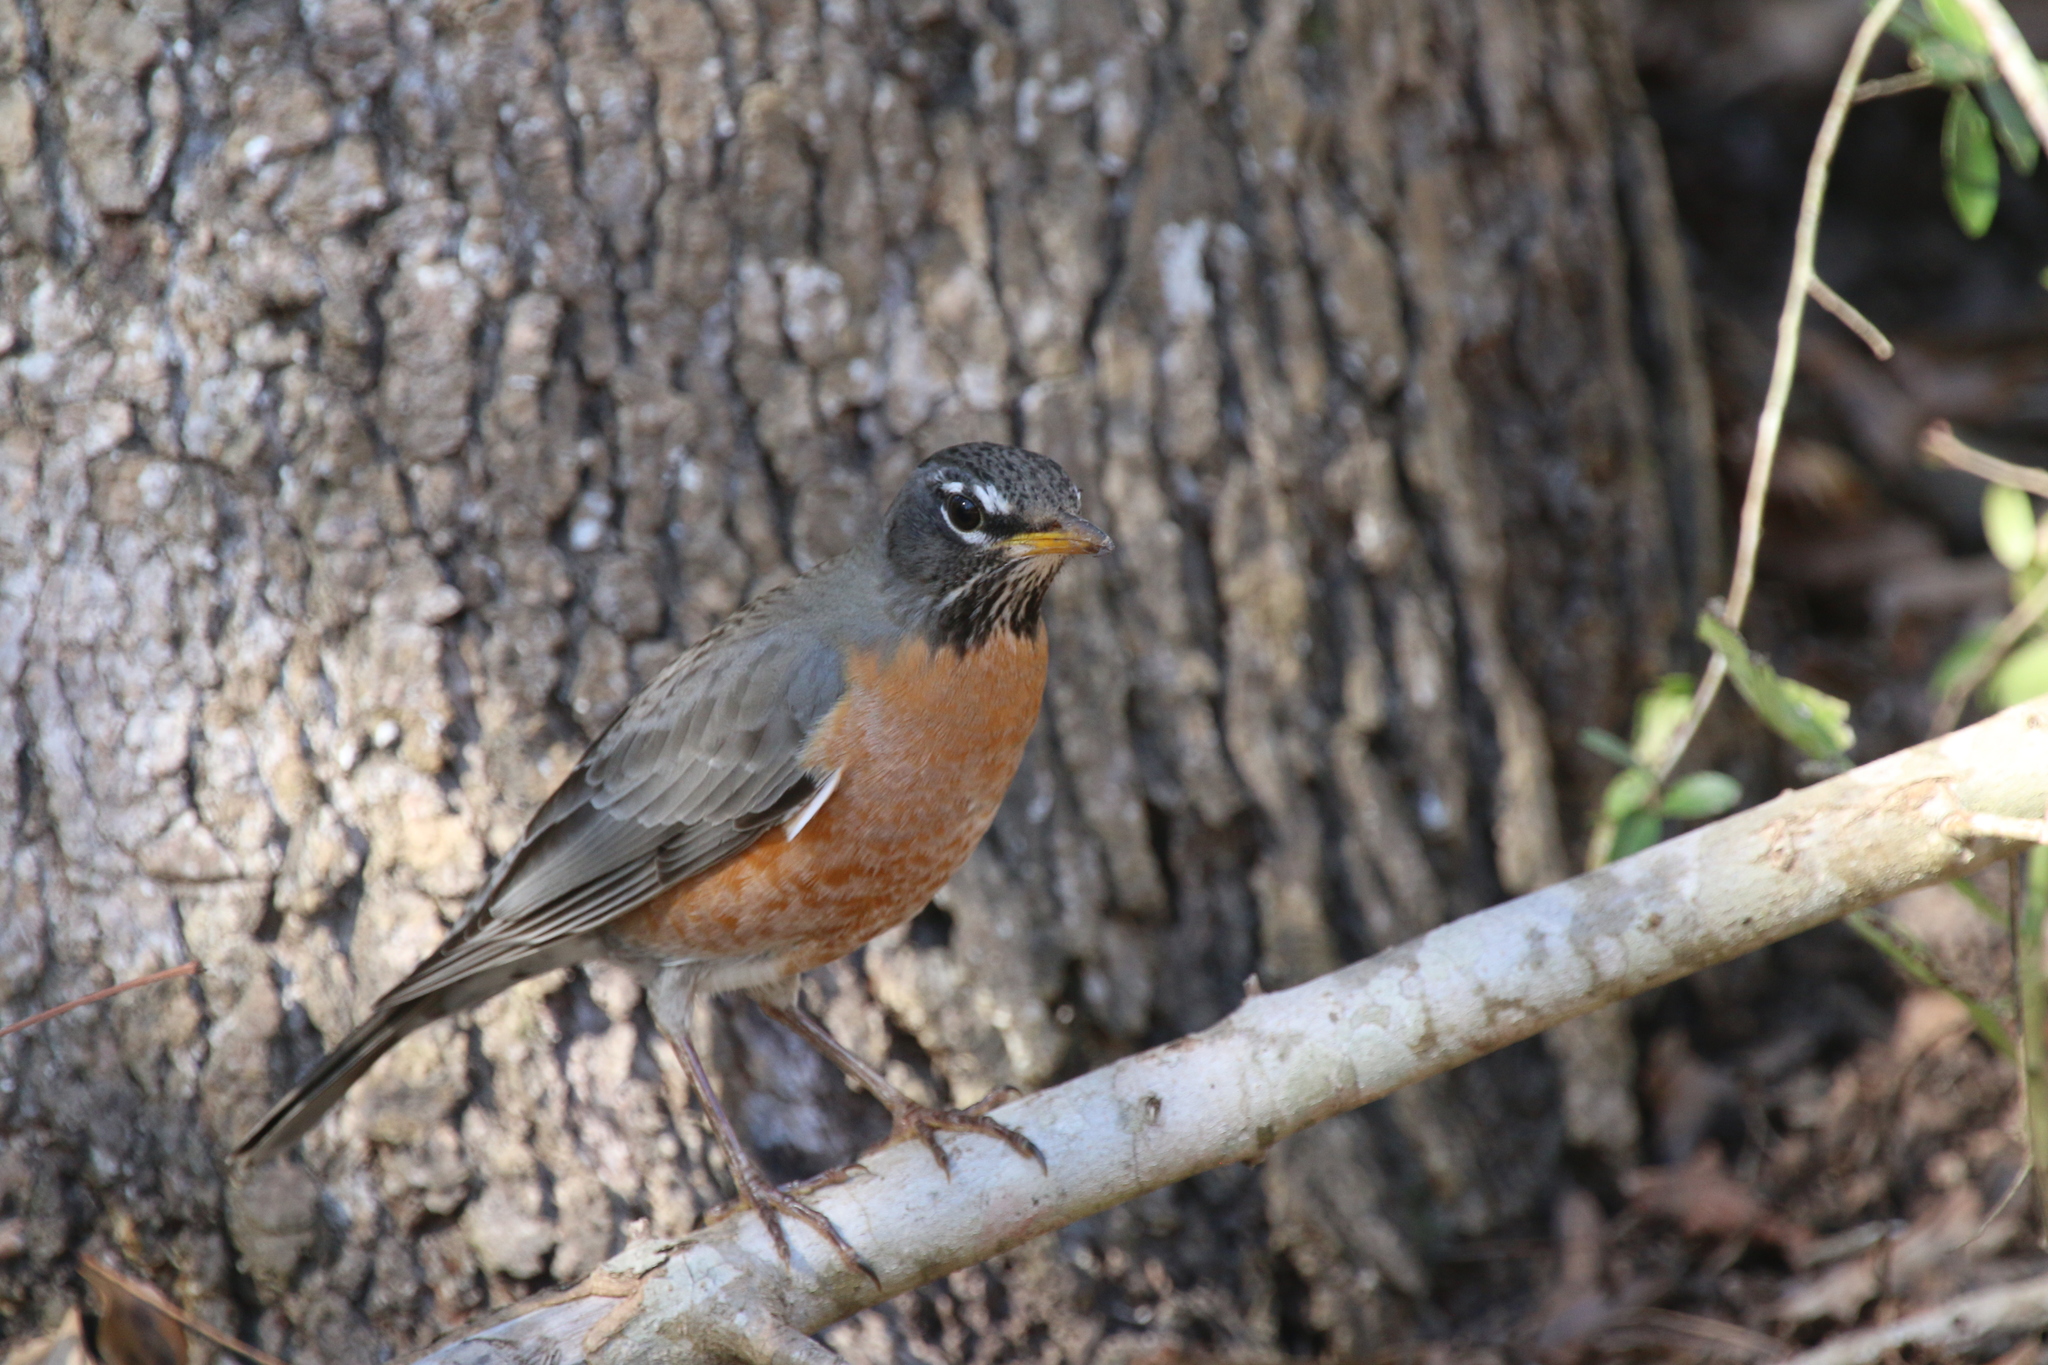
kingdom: Animalia
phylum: Chordata
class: Aves
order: Passeriformes
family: Turdidae
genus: Turdus
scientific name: Turdus migratorius
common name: American robin
